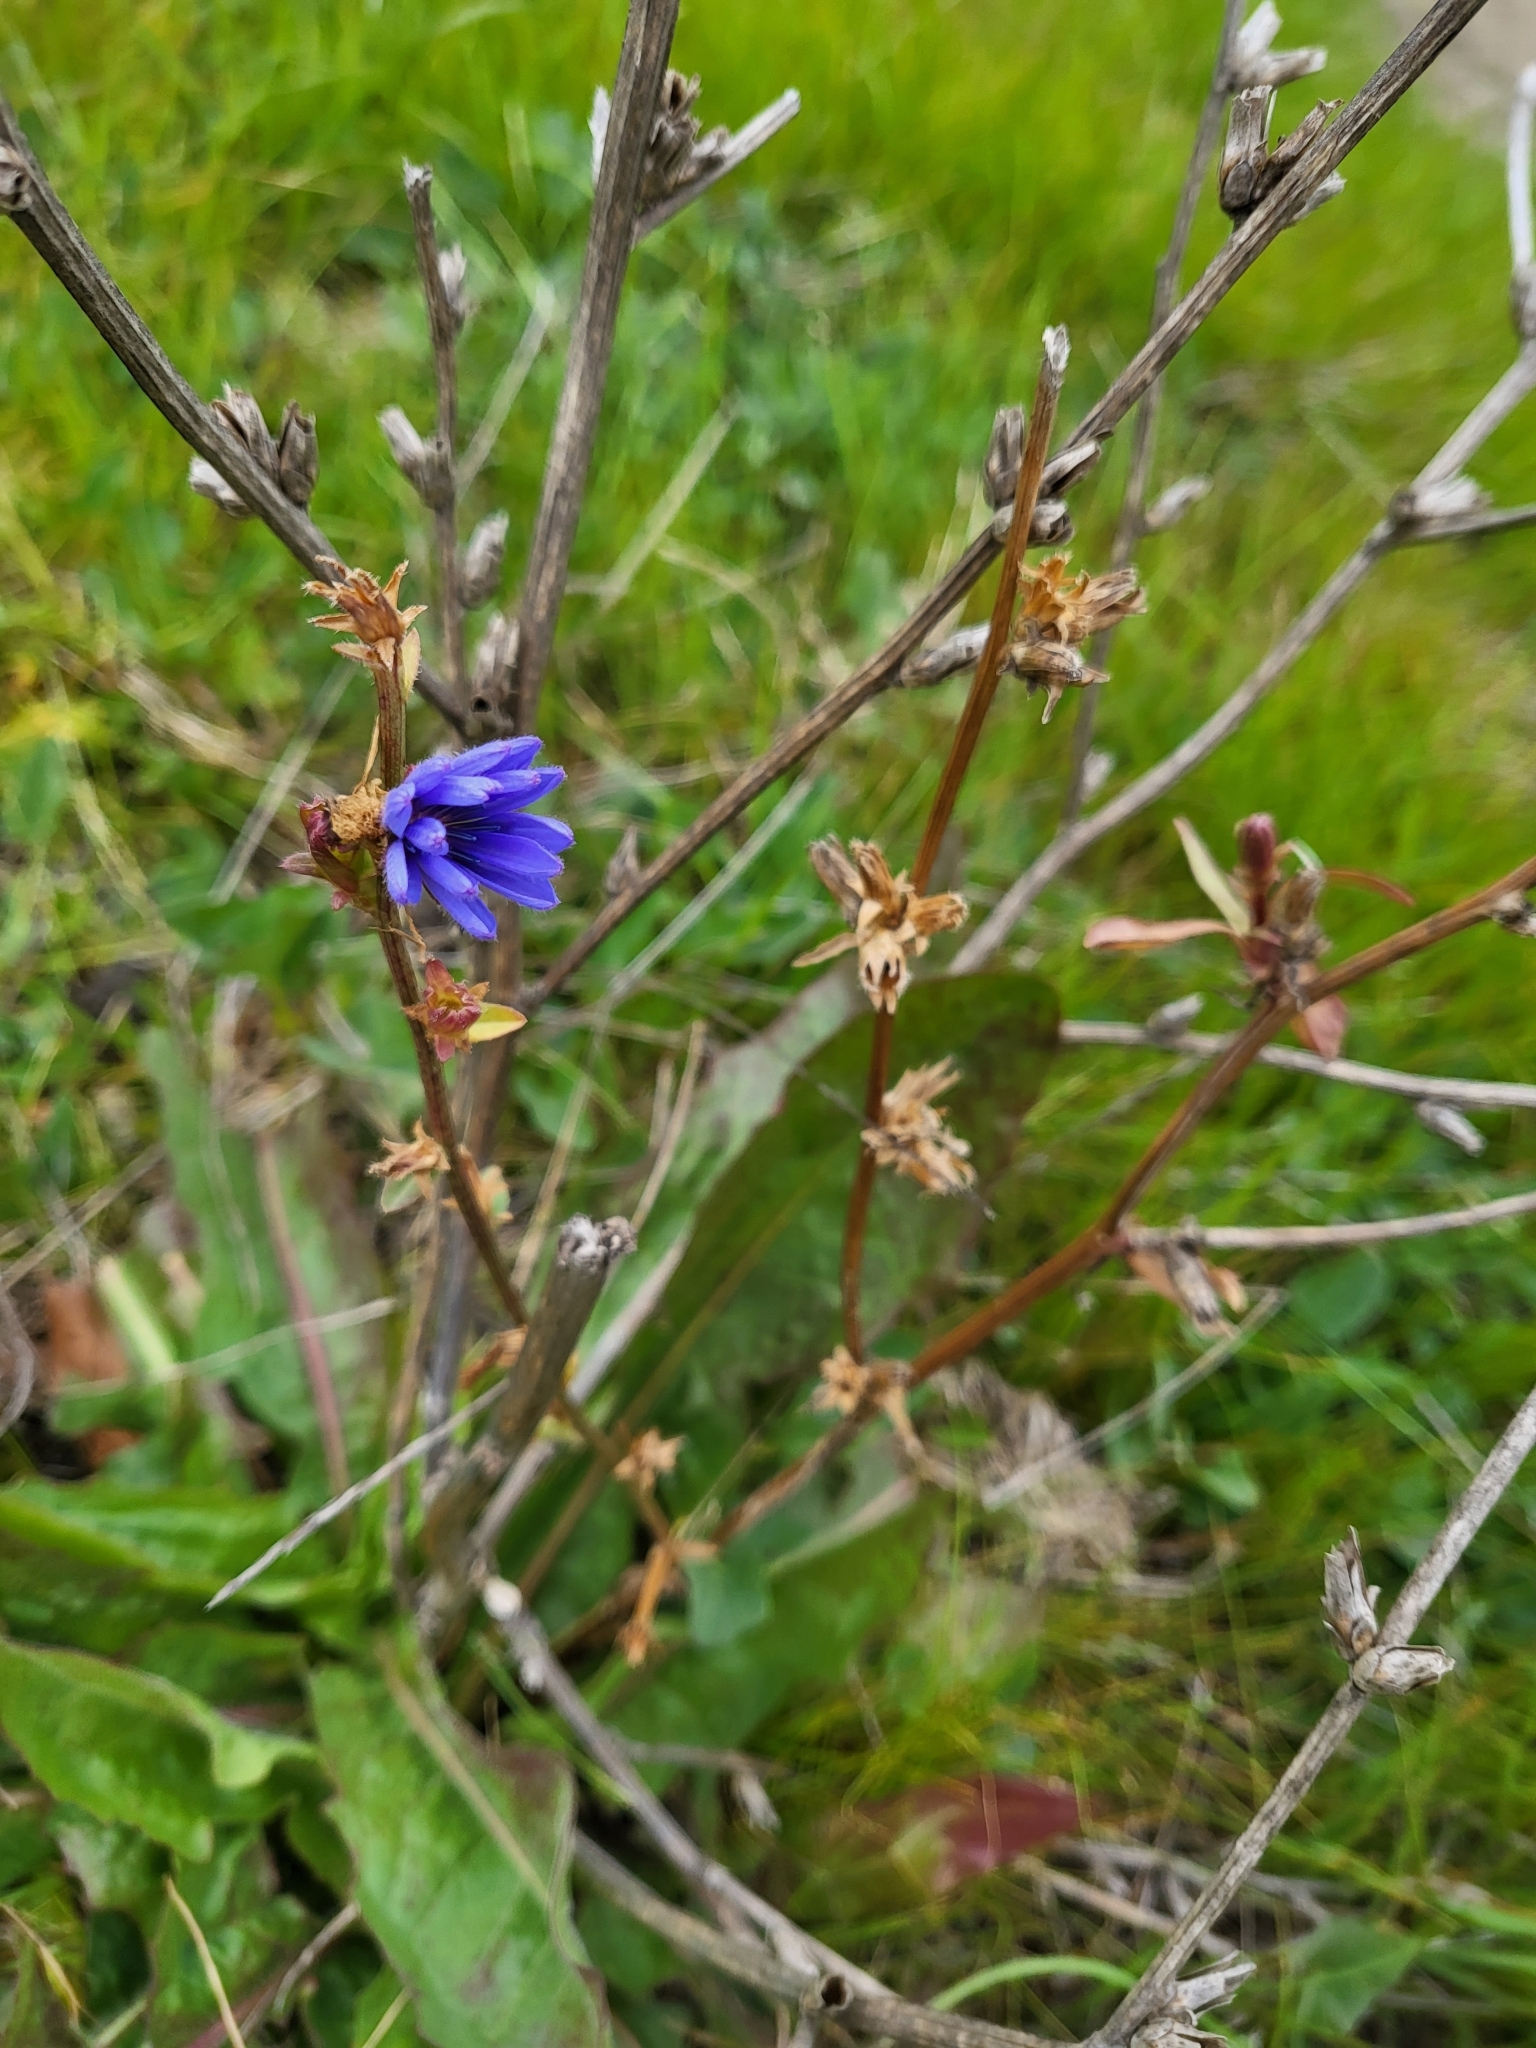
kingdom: Plantae
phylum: Tracheophyta
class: Magnoliopsida
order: Asterales
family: Asteraceae
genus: Cichorium
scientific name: Cichorium intybus
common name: Chicory
